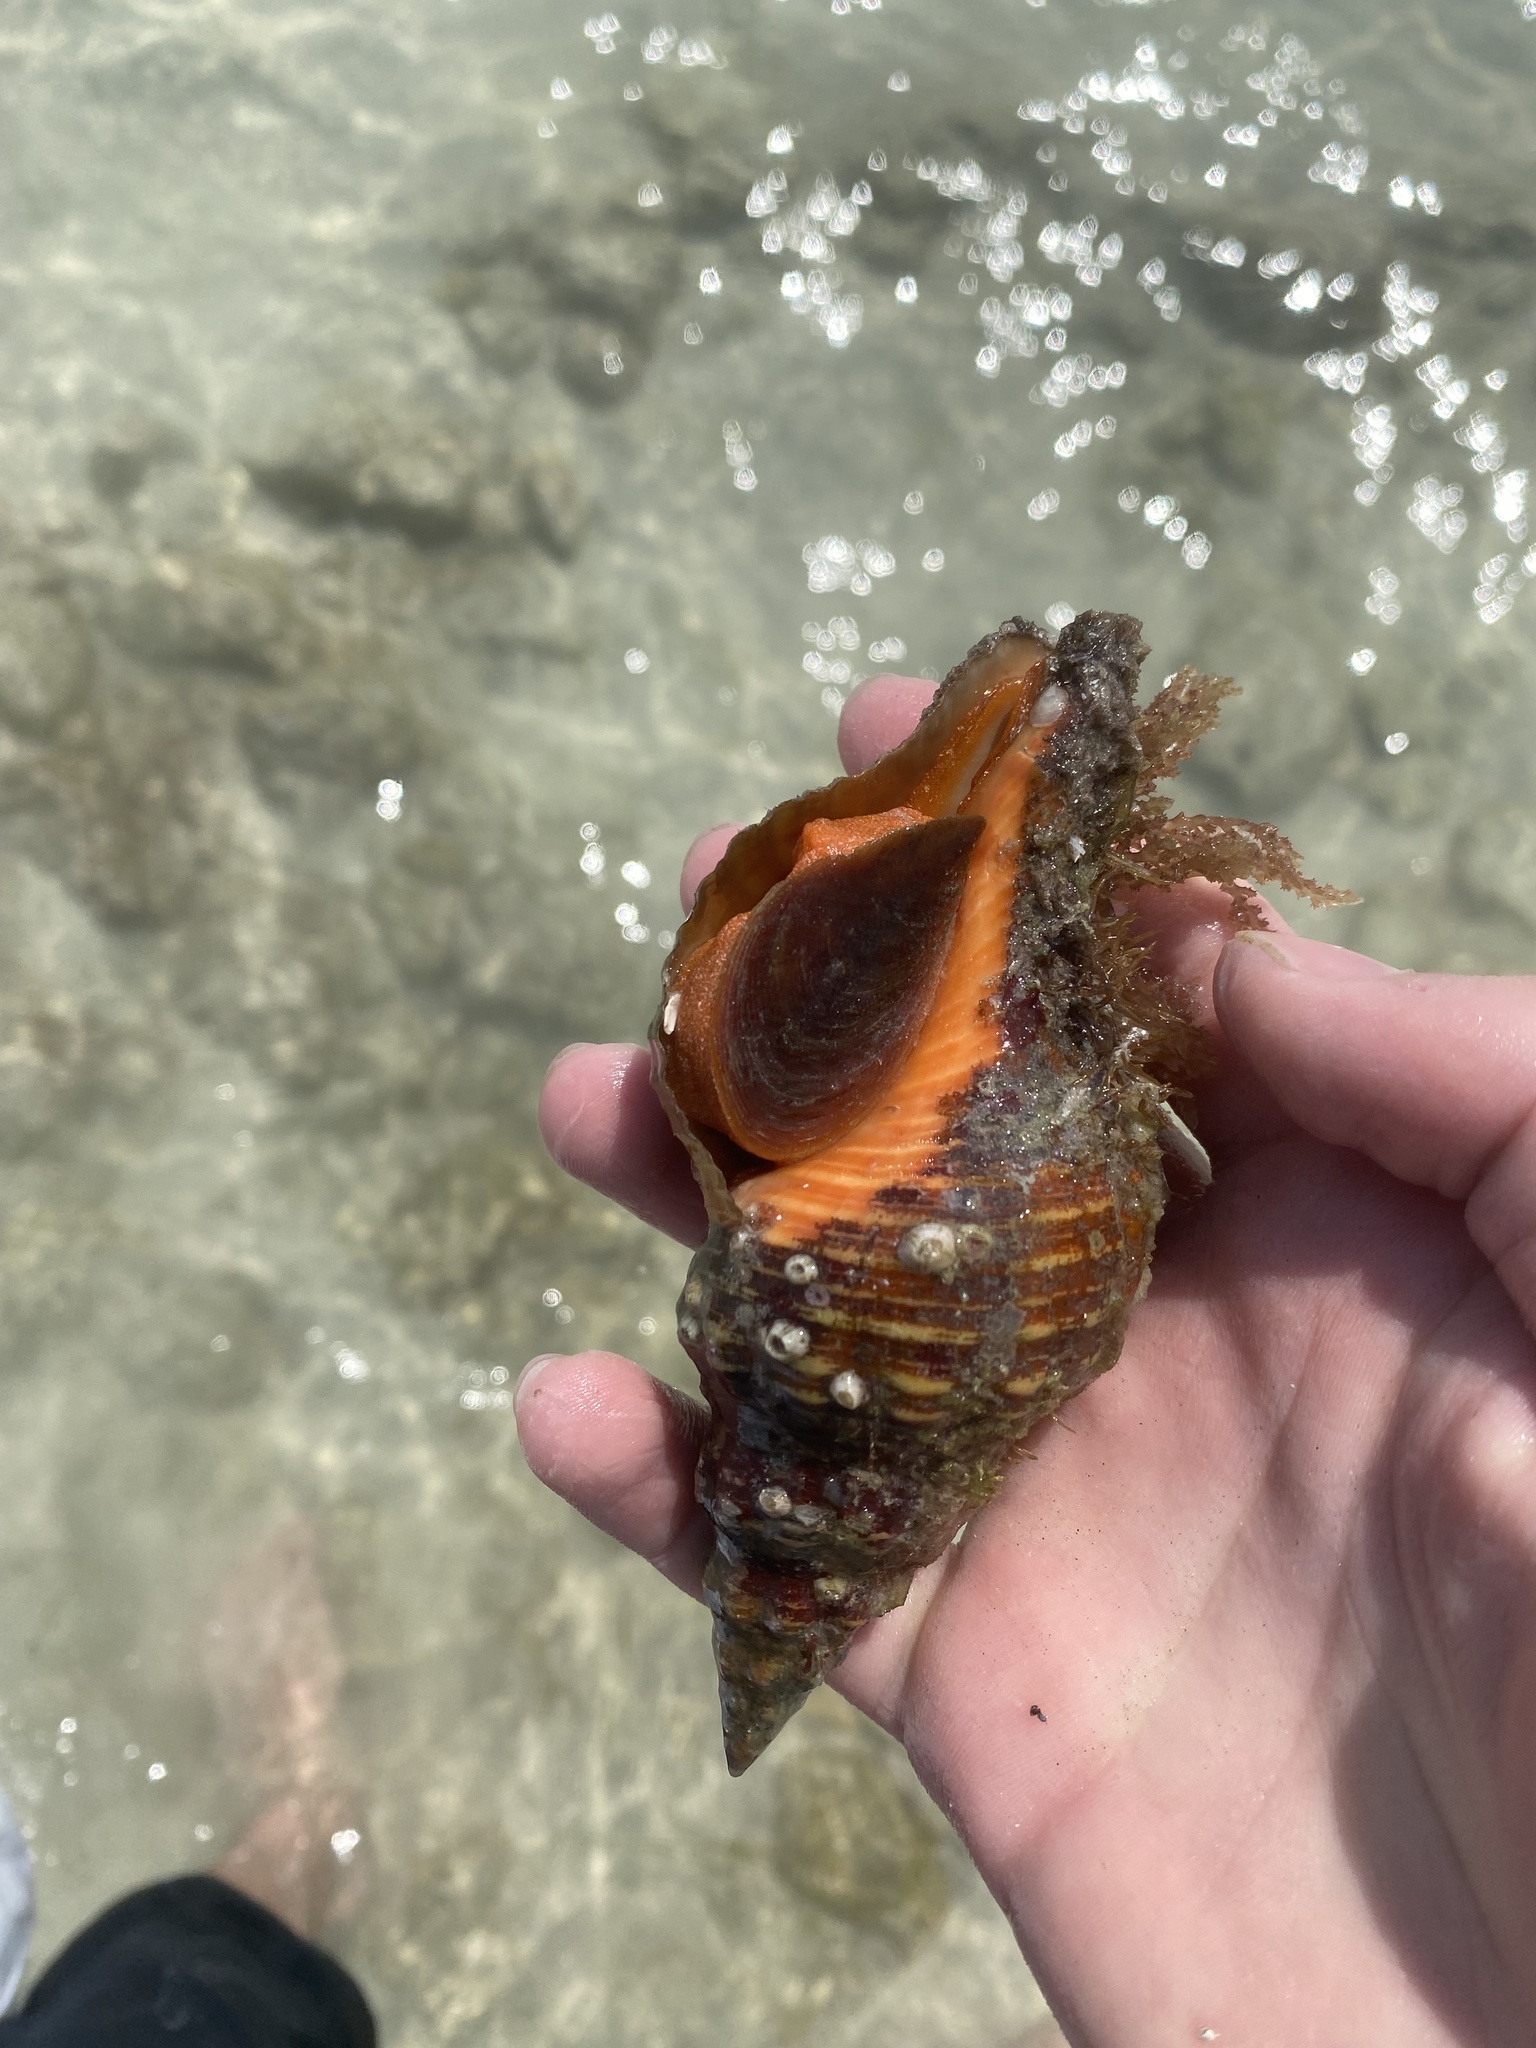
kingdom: Animalia
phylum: Mollusca
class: Gastropoda
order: Neogastropoda
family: Fasciolariidae
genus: Triplofusus
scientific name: Triplofusus giganteus
